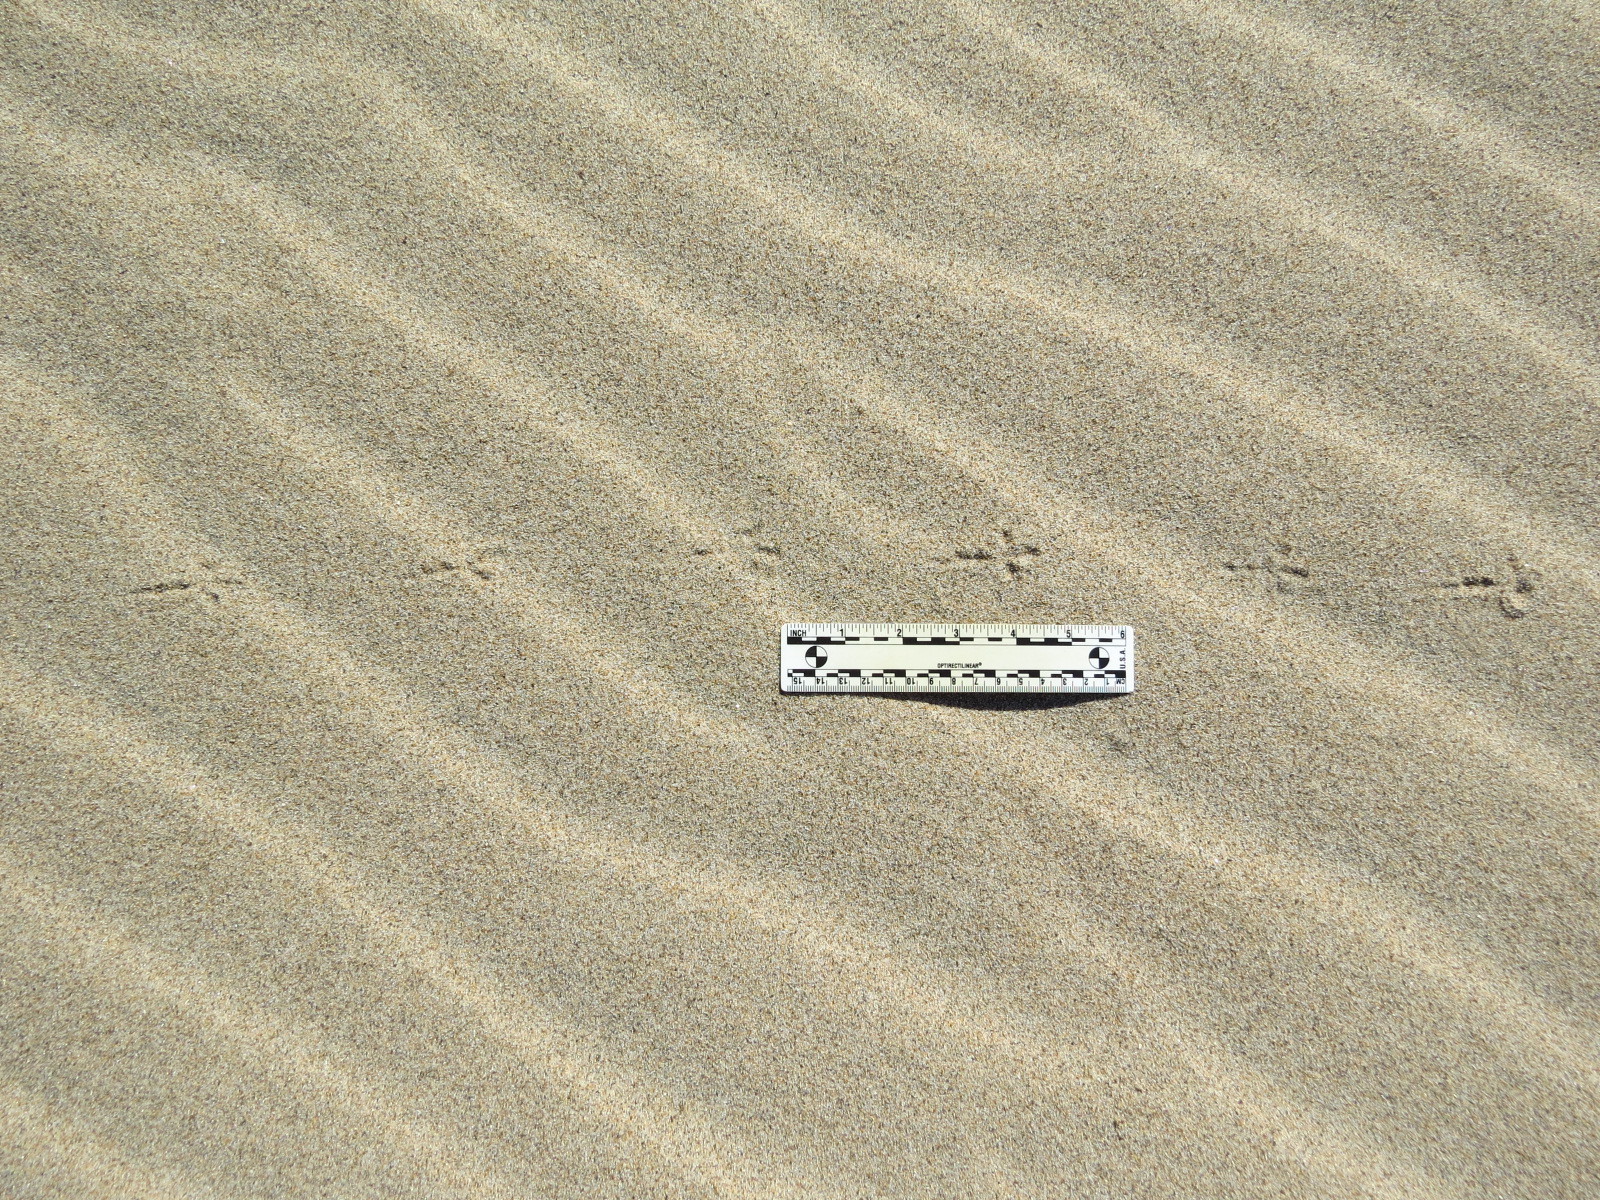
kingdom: Animalia
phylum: Chordata
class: Aves
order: Passeriformes
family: Motacillidae
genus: Anthus
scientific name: Anthus rubescens
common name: Buff-bellied pipit
